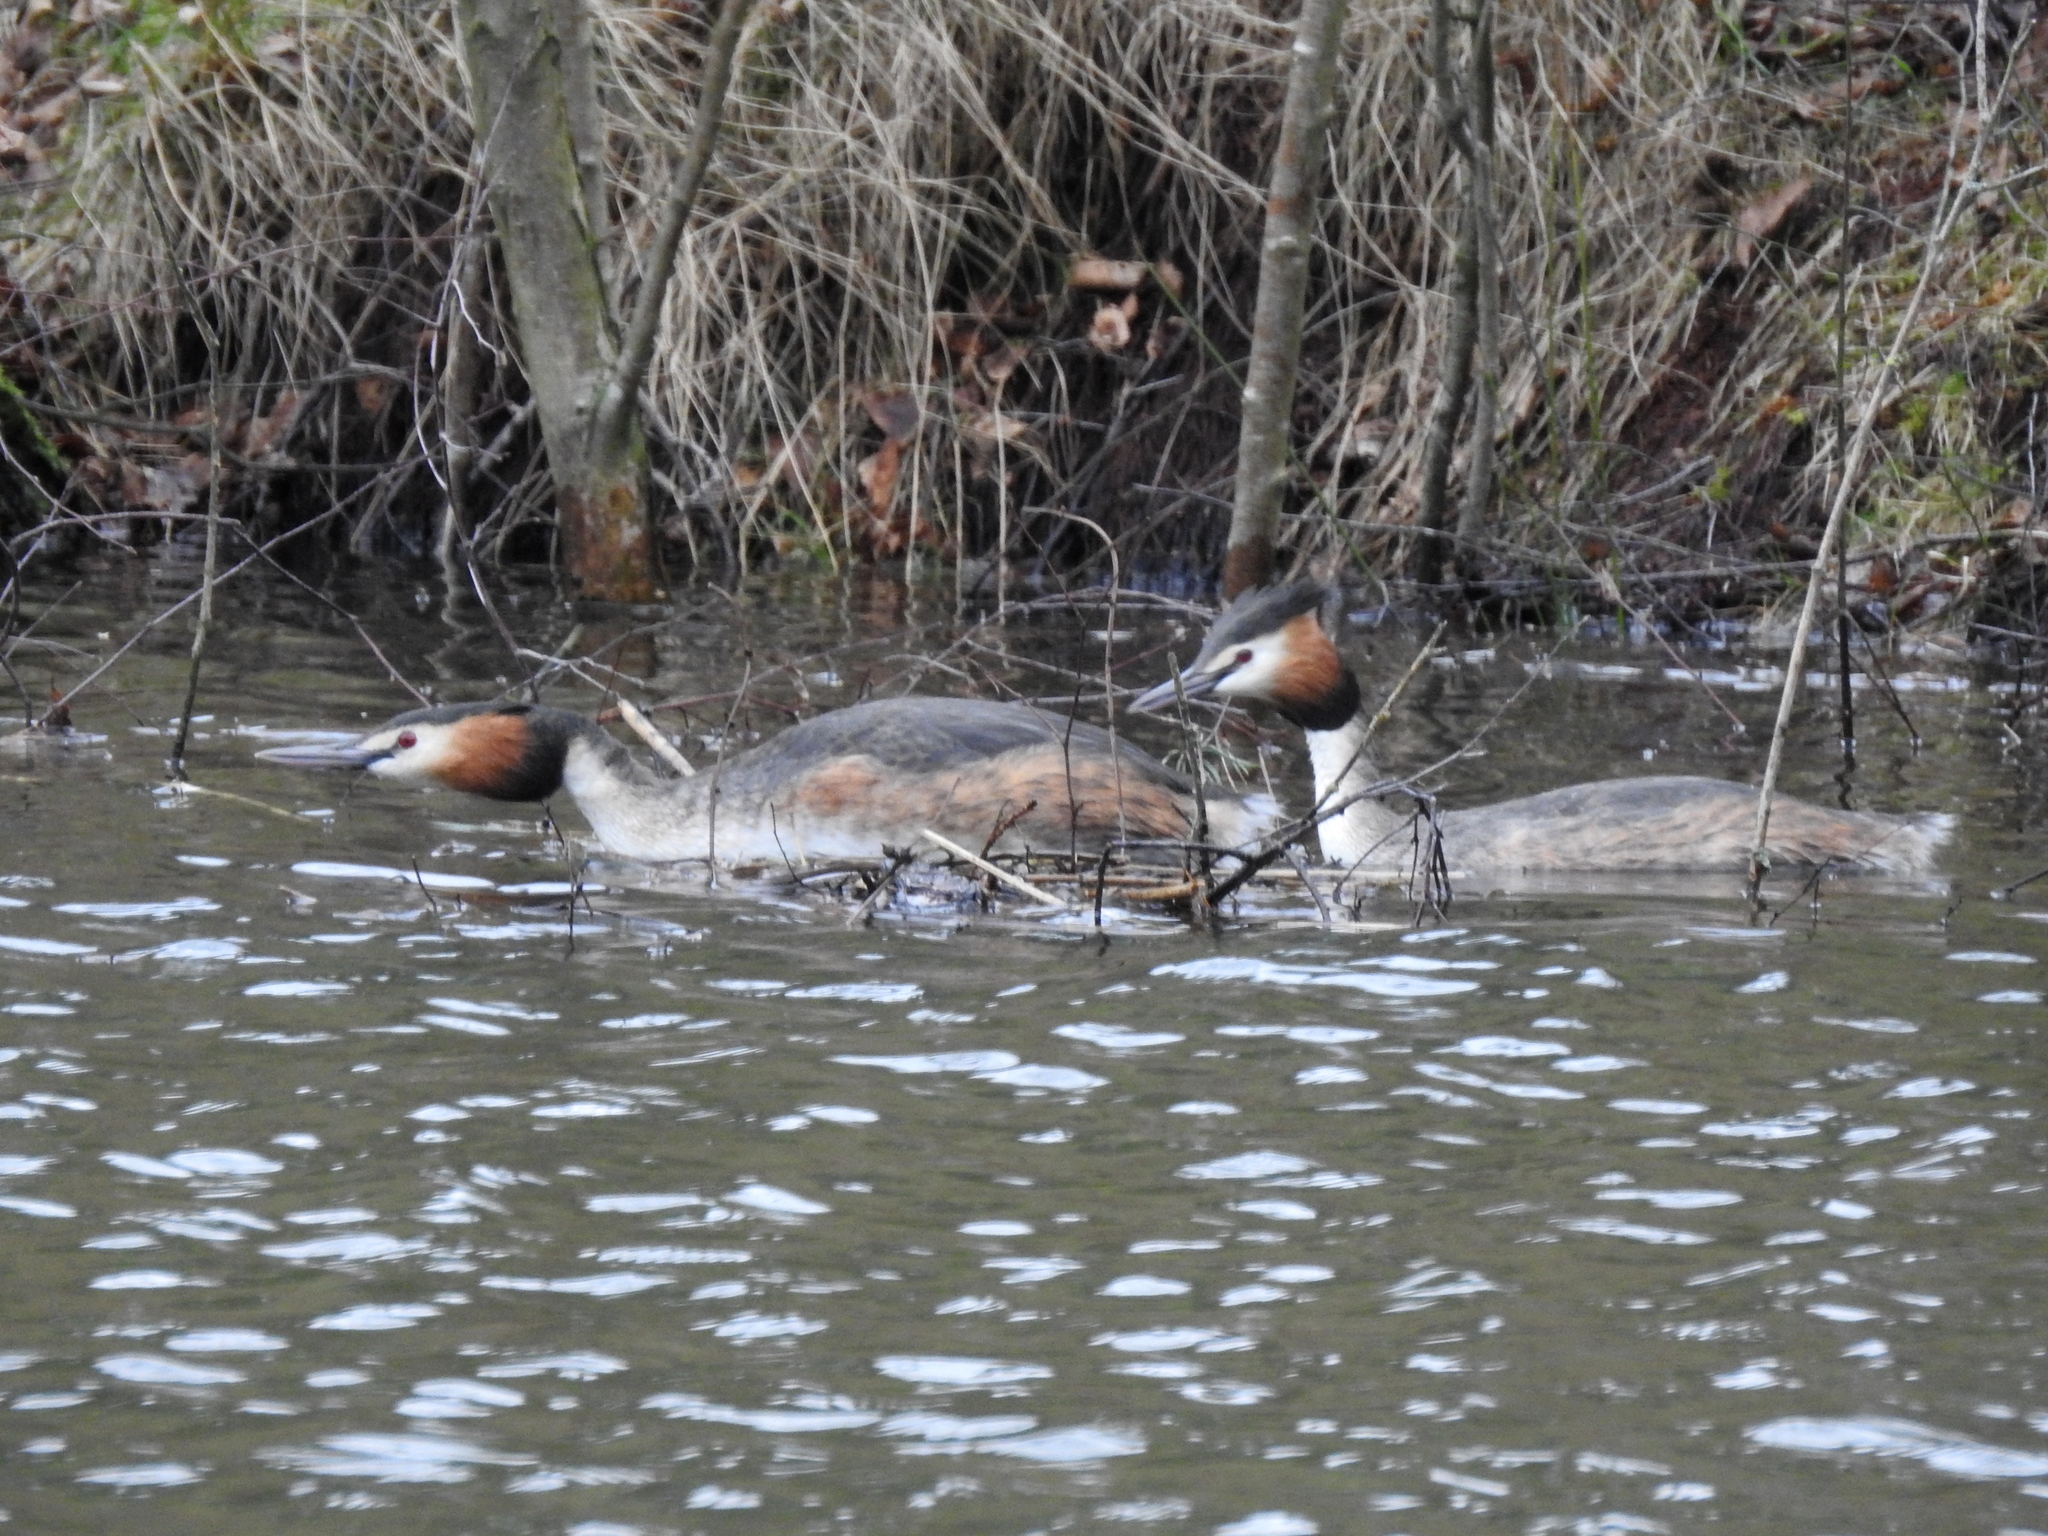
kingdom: Animalia
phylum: Chordata
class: Aves
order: Podicipediformes
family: Podicipedidae
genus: Podiceps
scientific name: Podiceps cristatus
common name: Great crested grebe
